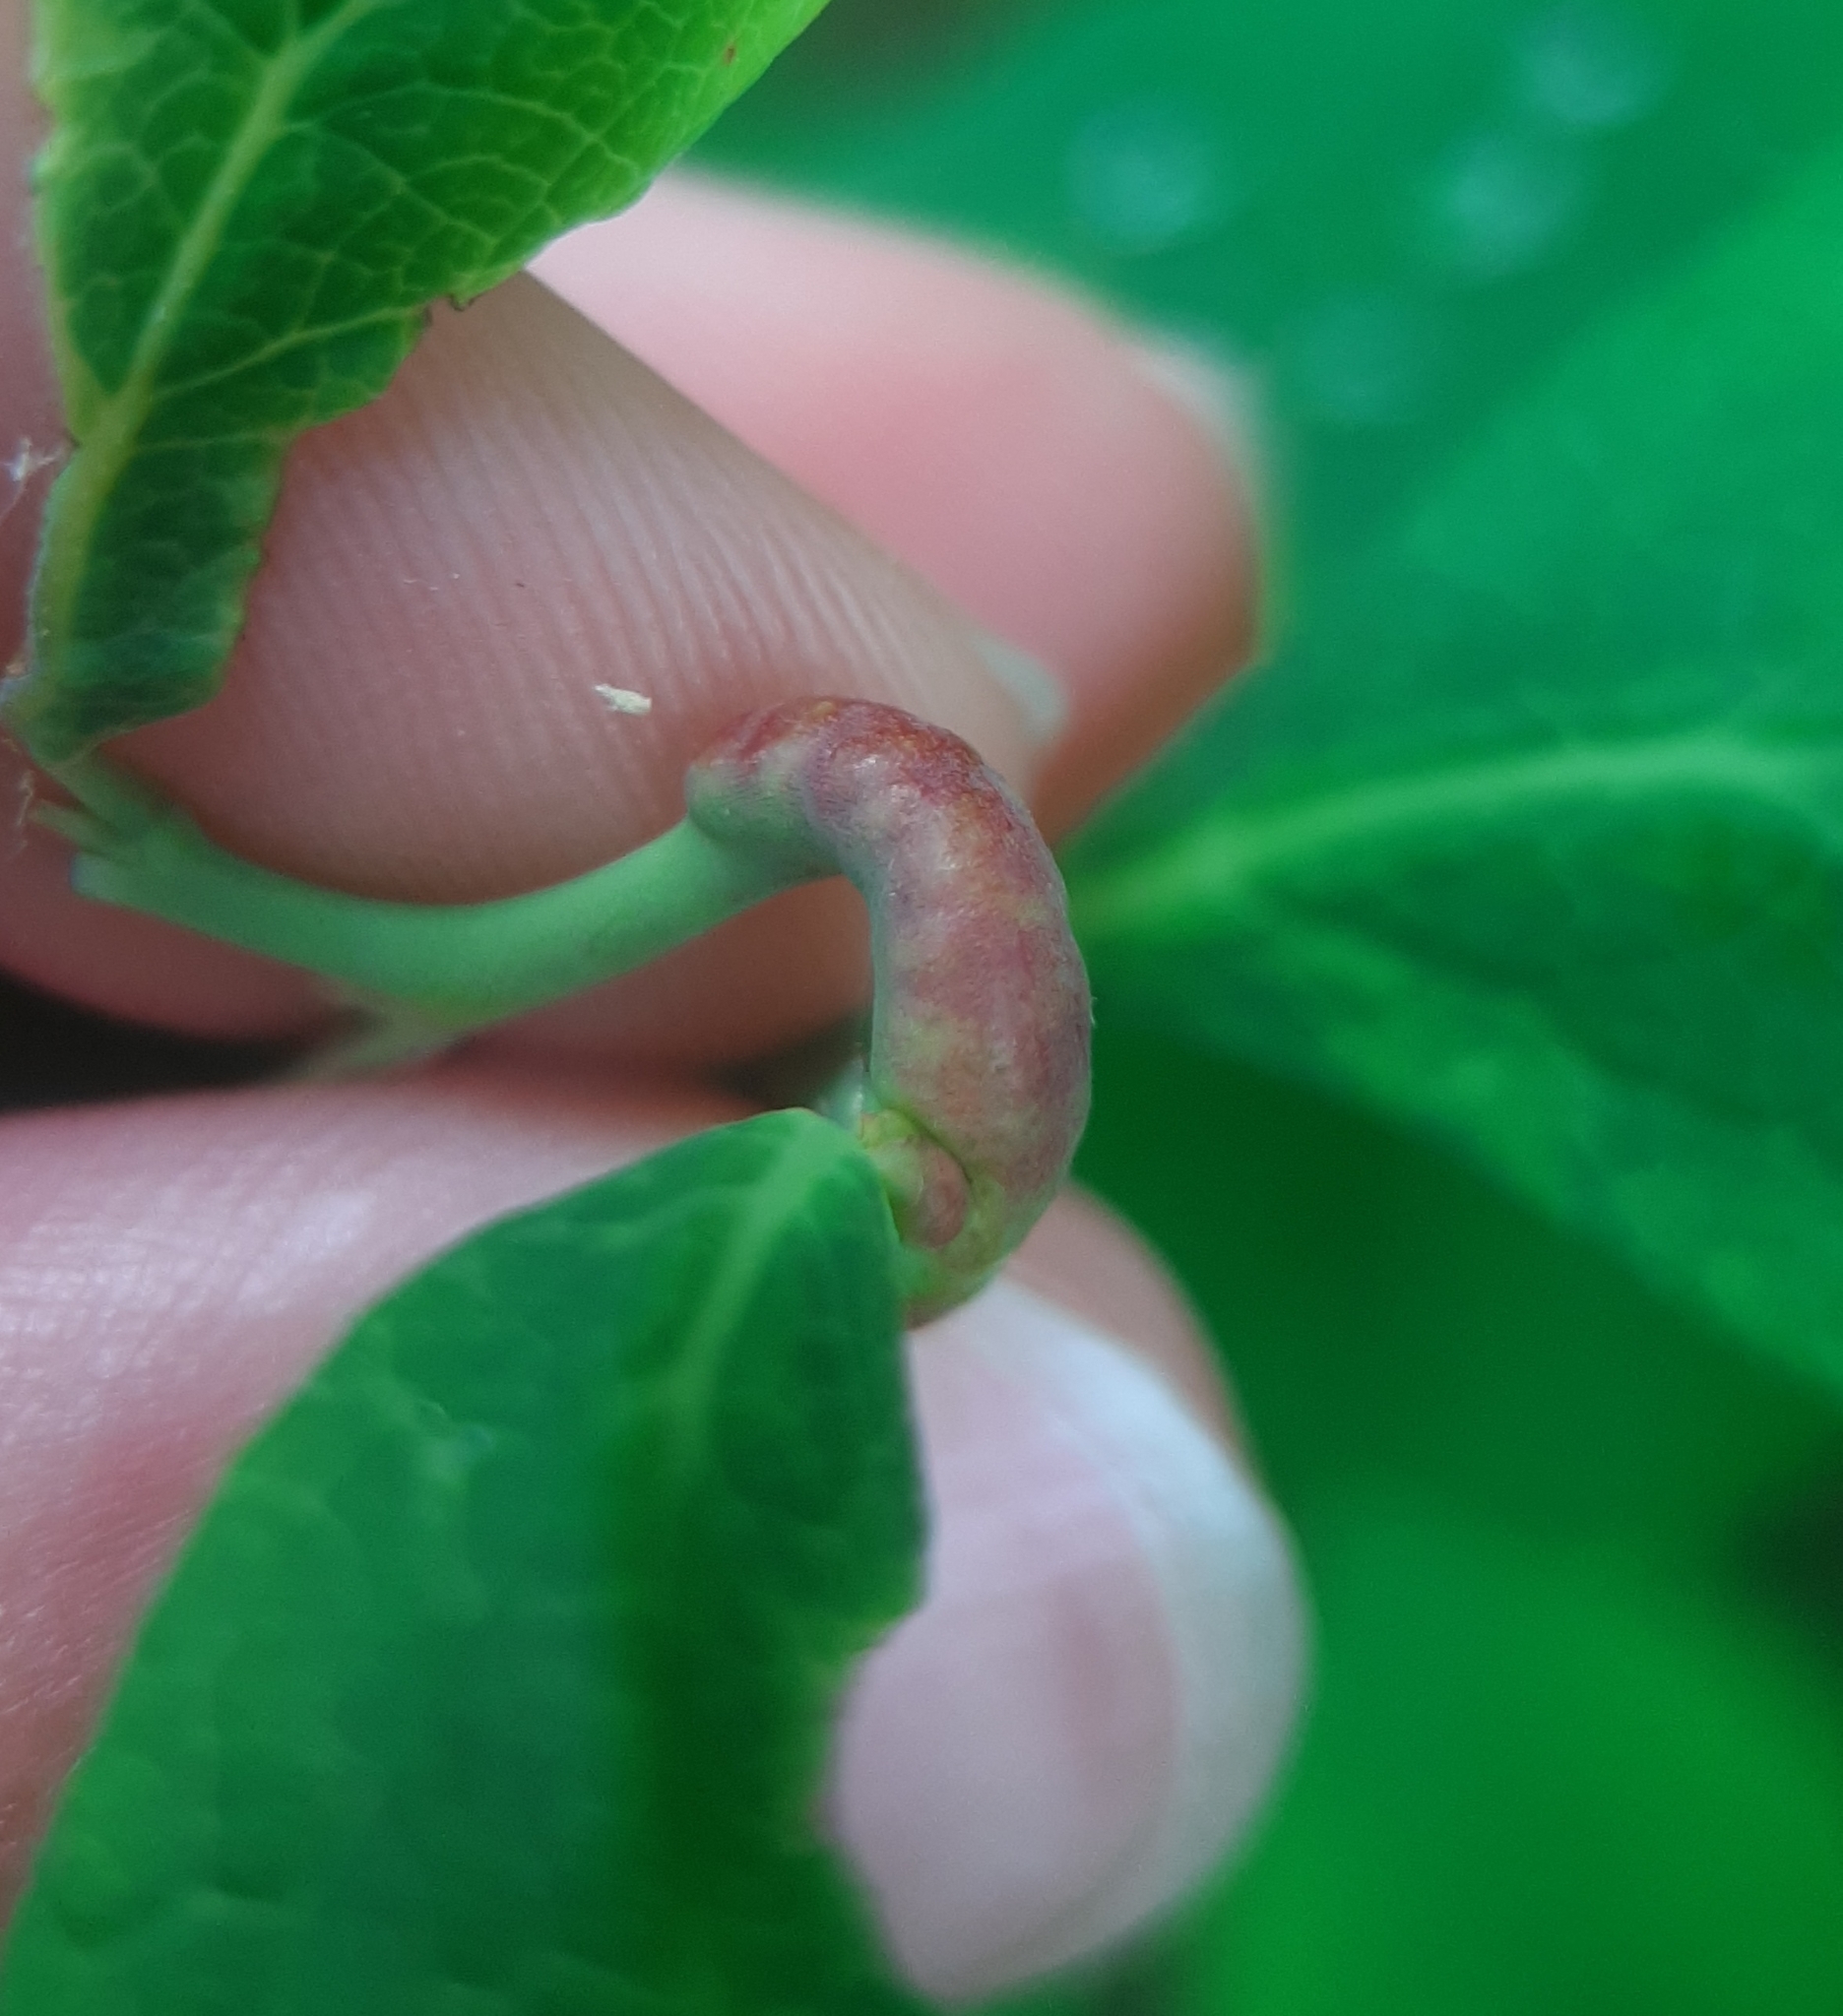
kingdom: Animalia
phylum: Arthropoda
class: Insecta
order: Hymenoptera
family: Pteromalidae
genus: Hemadas
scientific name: Hemadas nubilipennis
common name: Blueberry stem gall wasp
